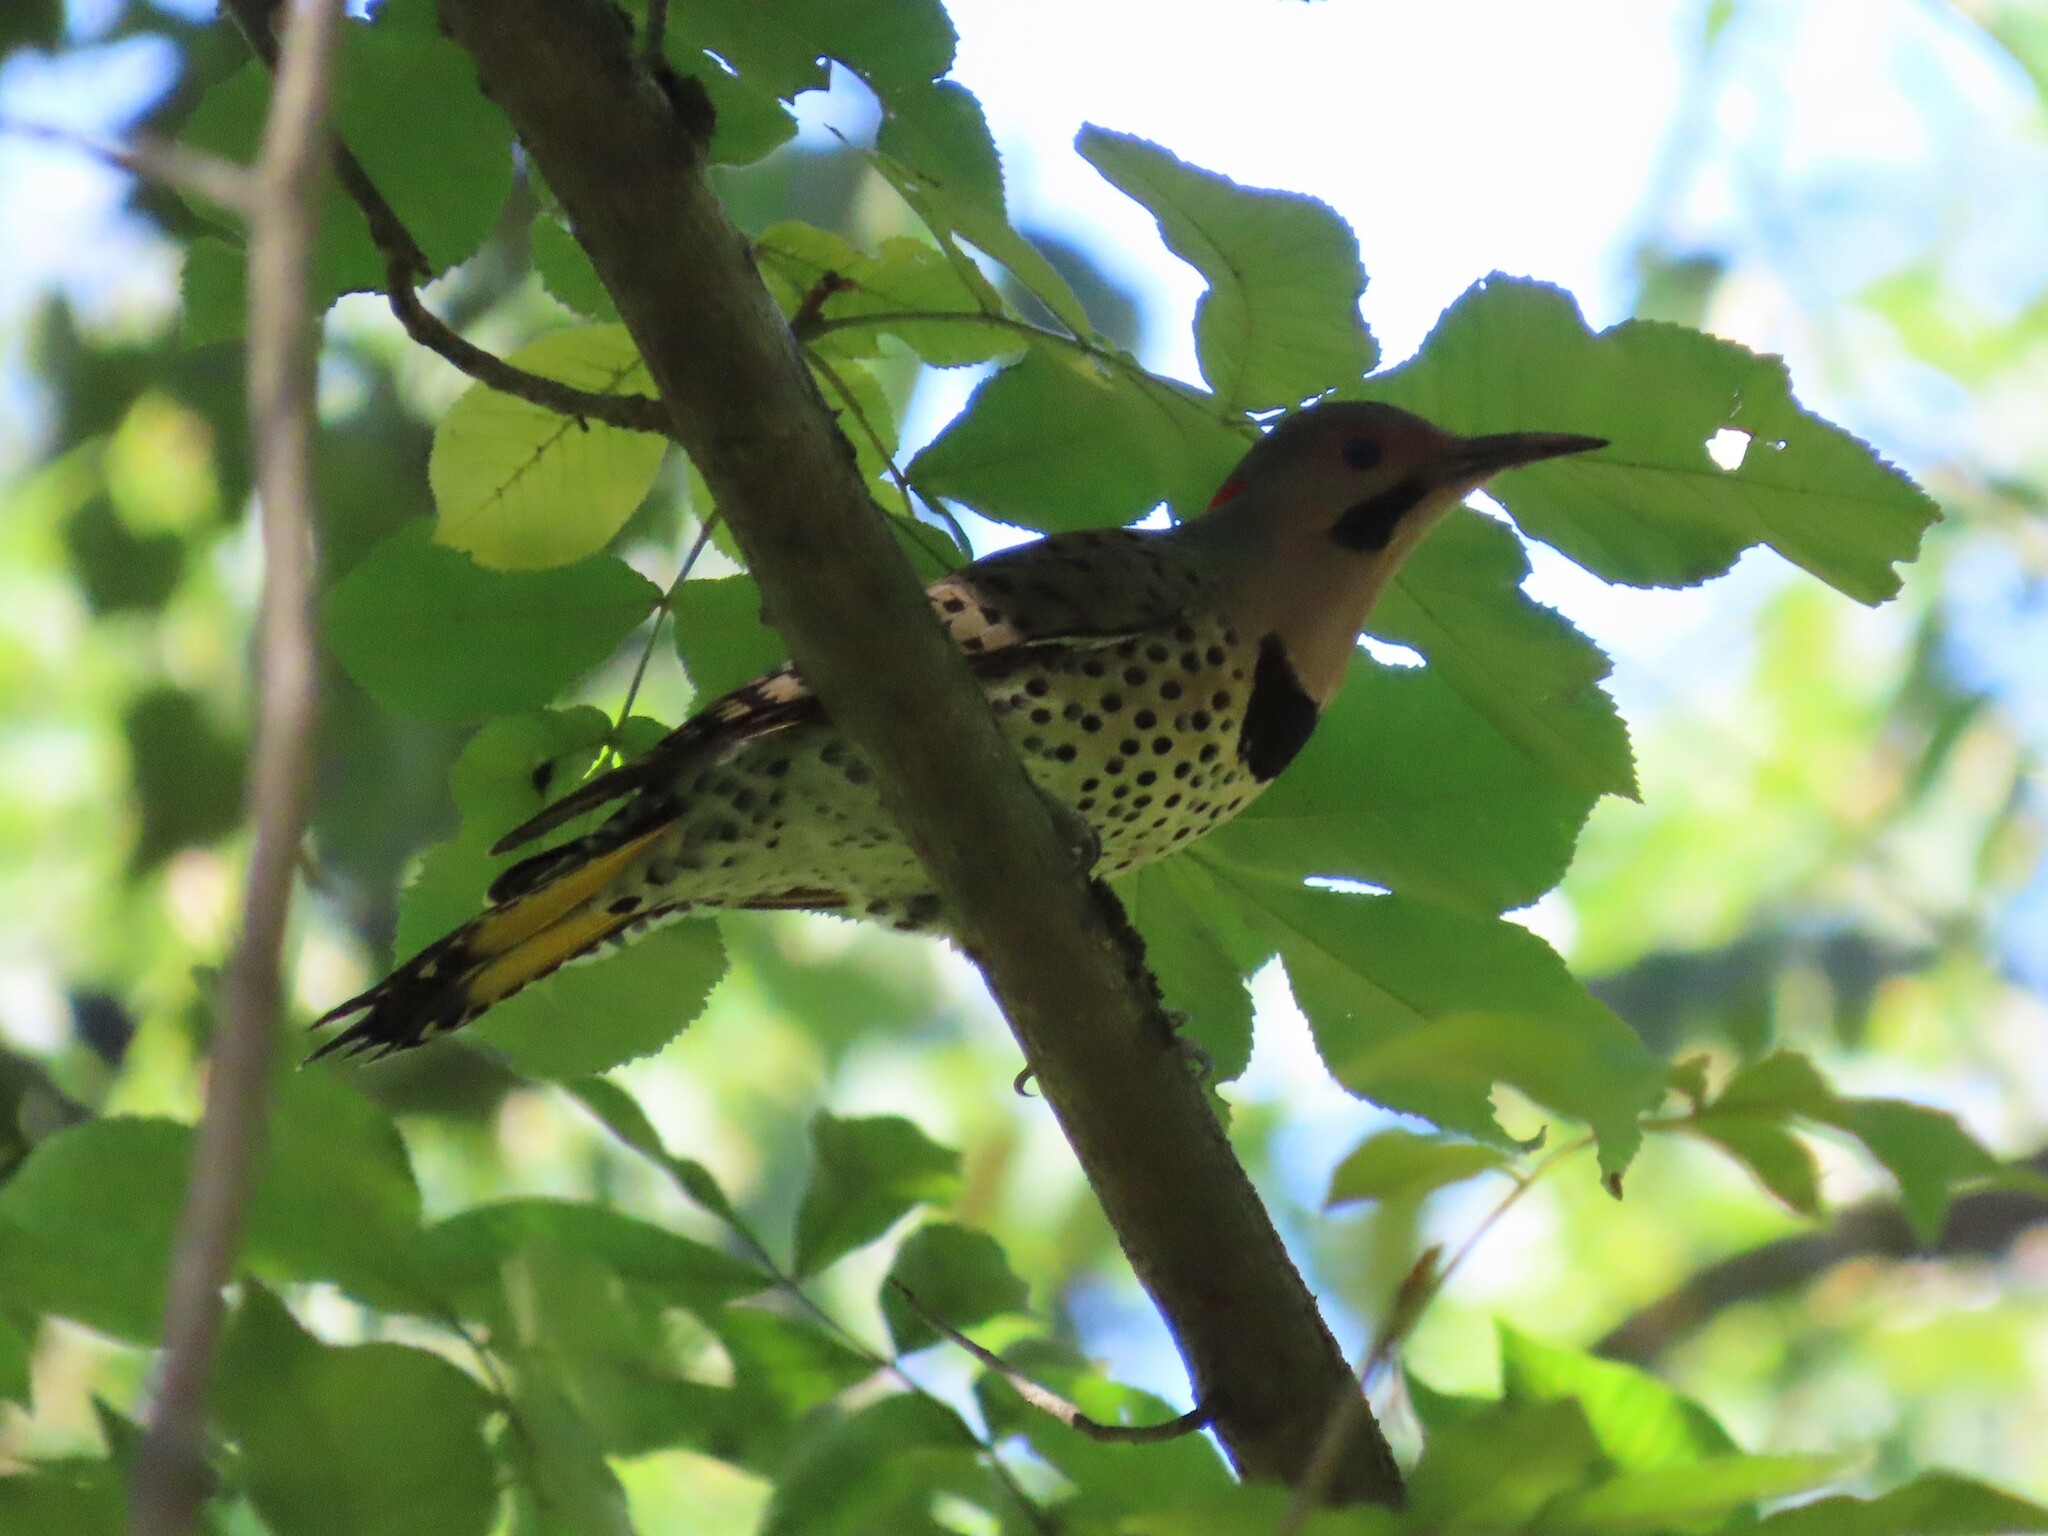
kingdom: Animalia
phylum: Chordata
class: Aves
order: Piciformes
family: Picidae
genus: Colaptes
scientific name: Colaptes auratus
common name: Northern flicker
